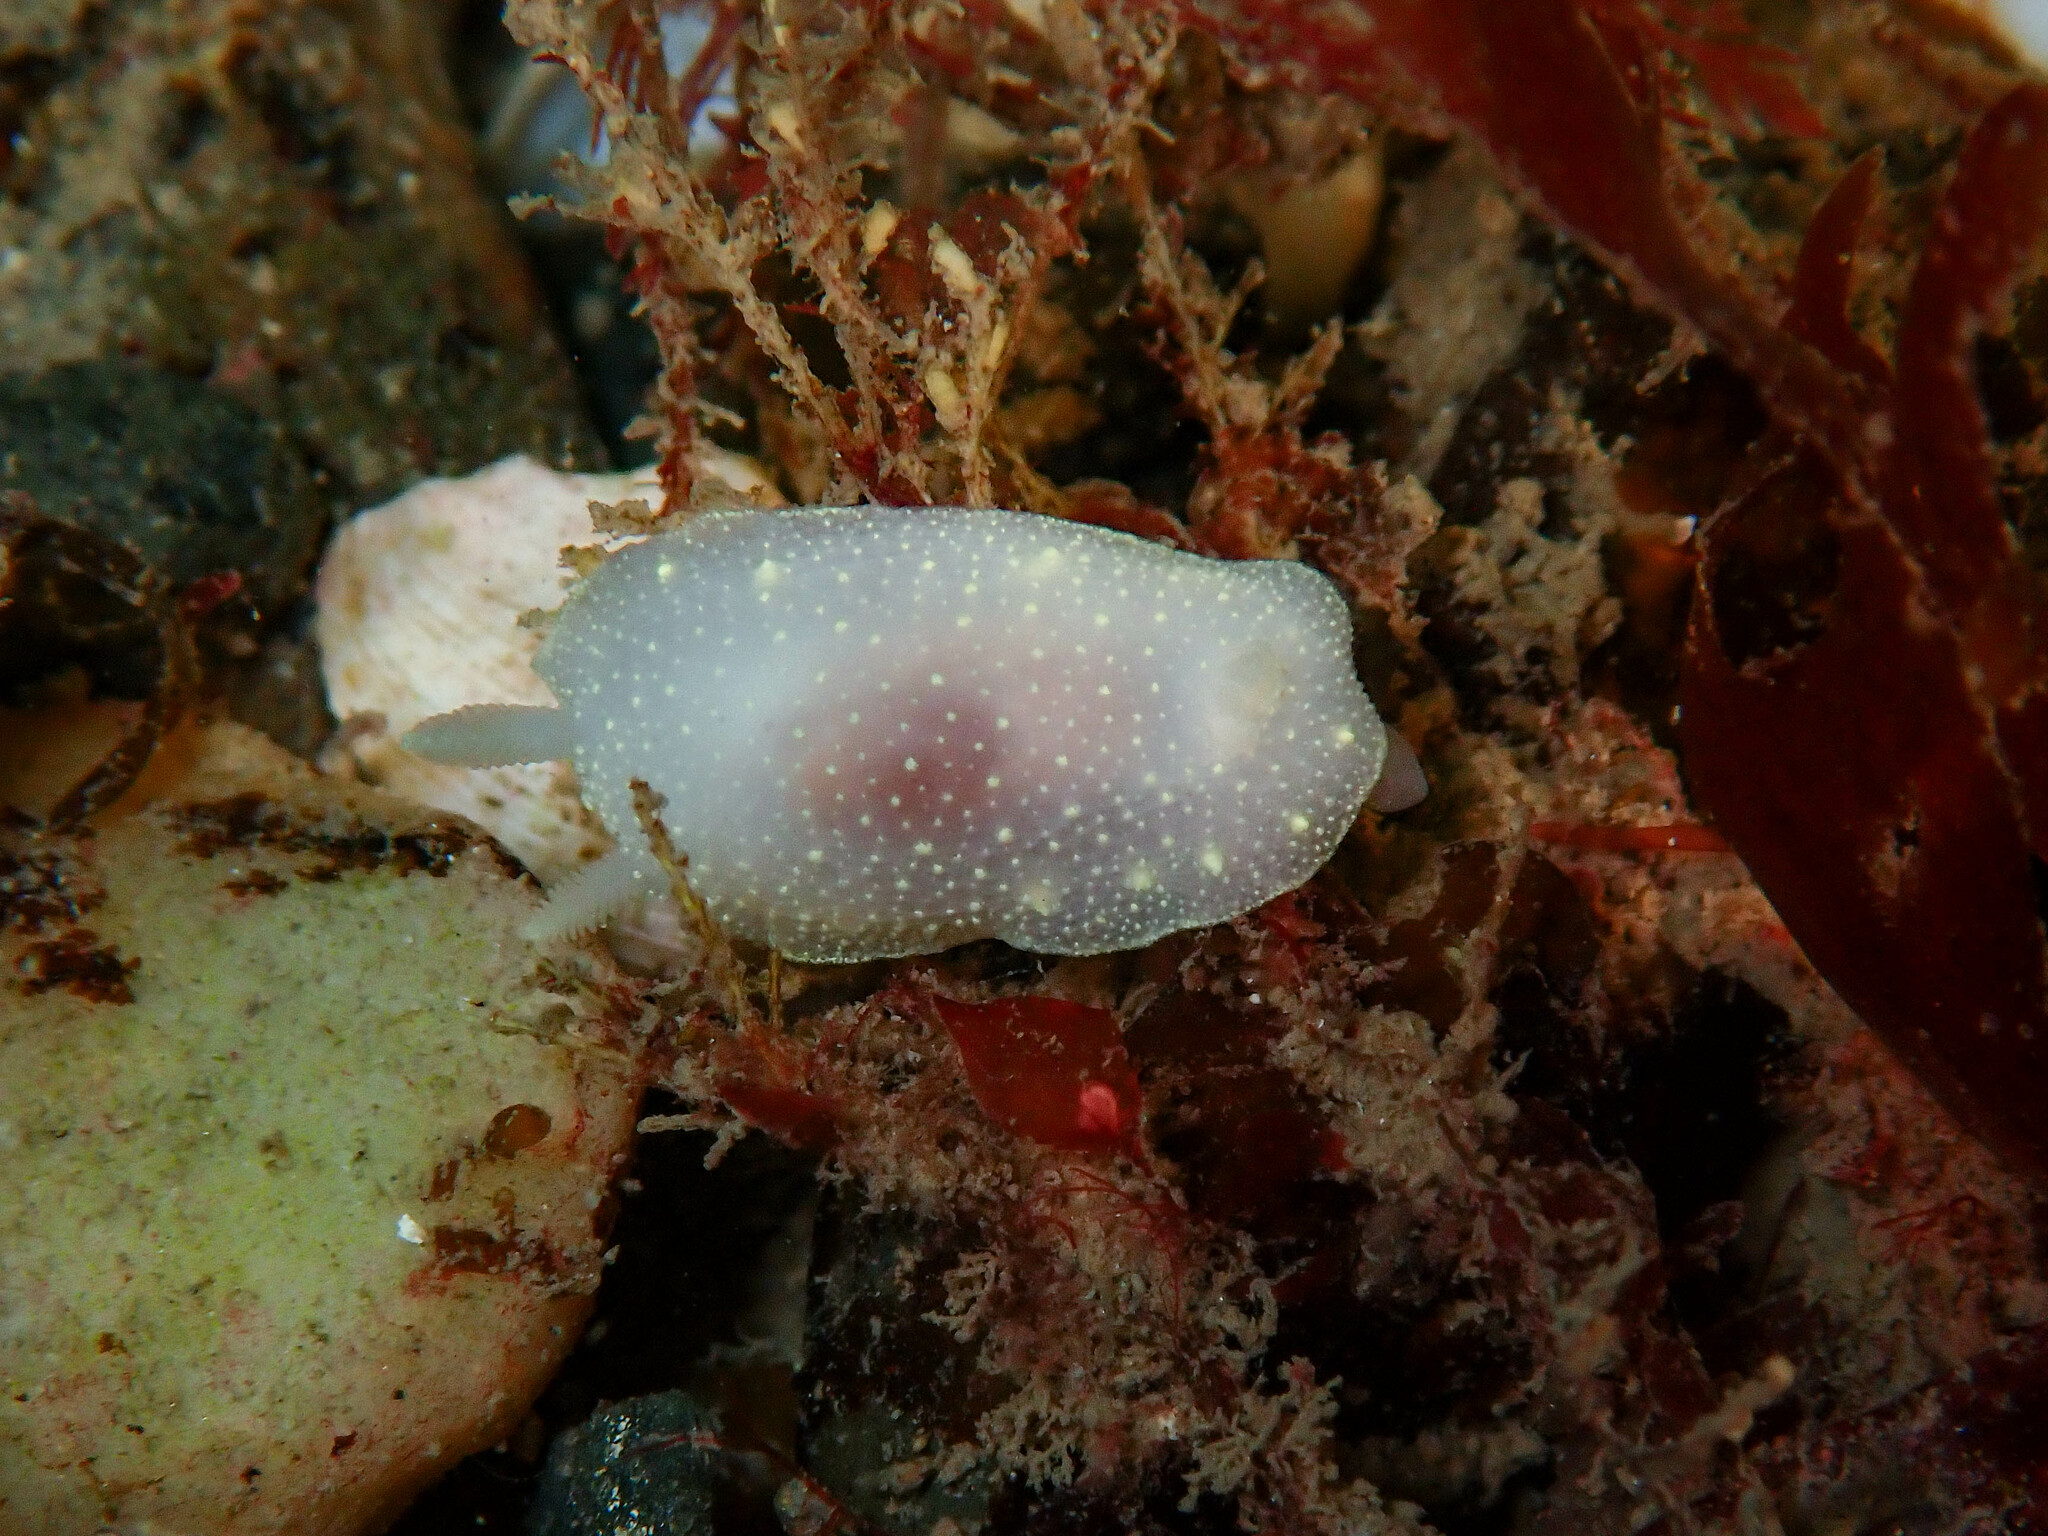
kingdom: Animalia
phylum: Mollusca
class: Gastropoda
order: Nudibranchia
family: Cadlinidae
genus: Cadlina
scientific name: Cadlina laevis
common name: White atlantic cadlina
